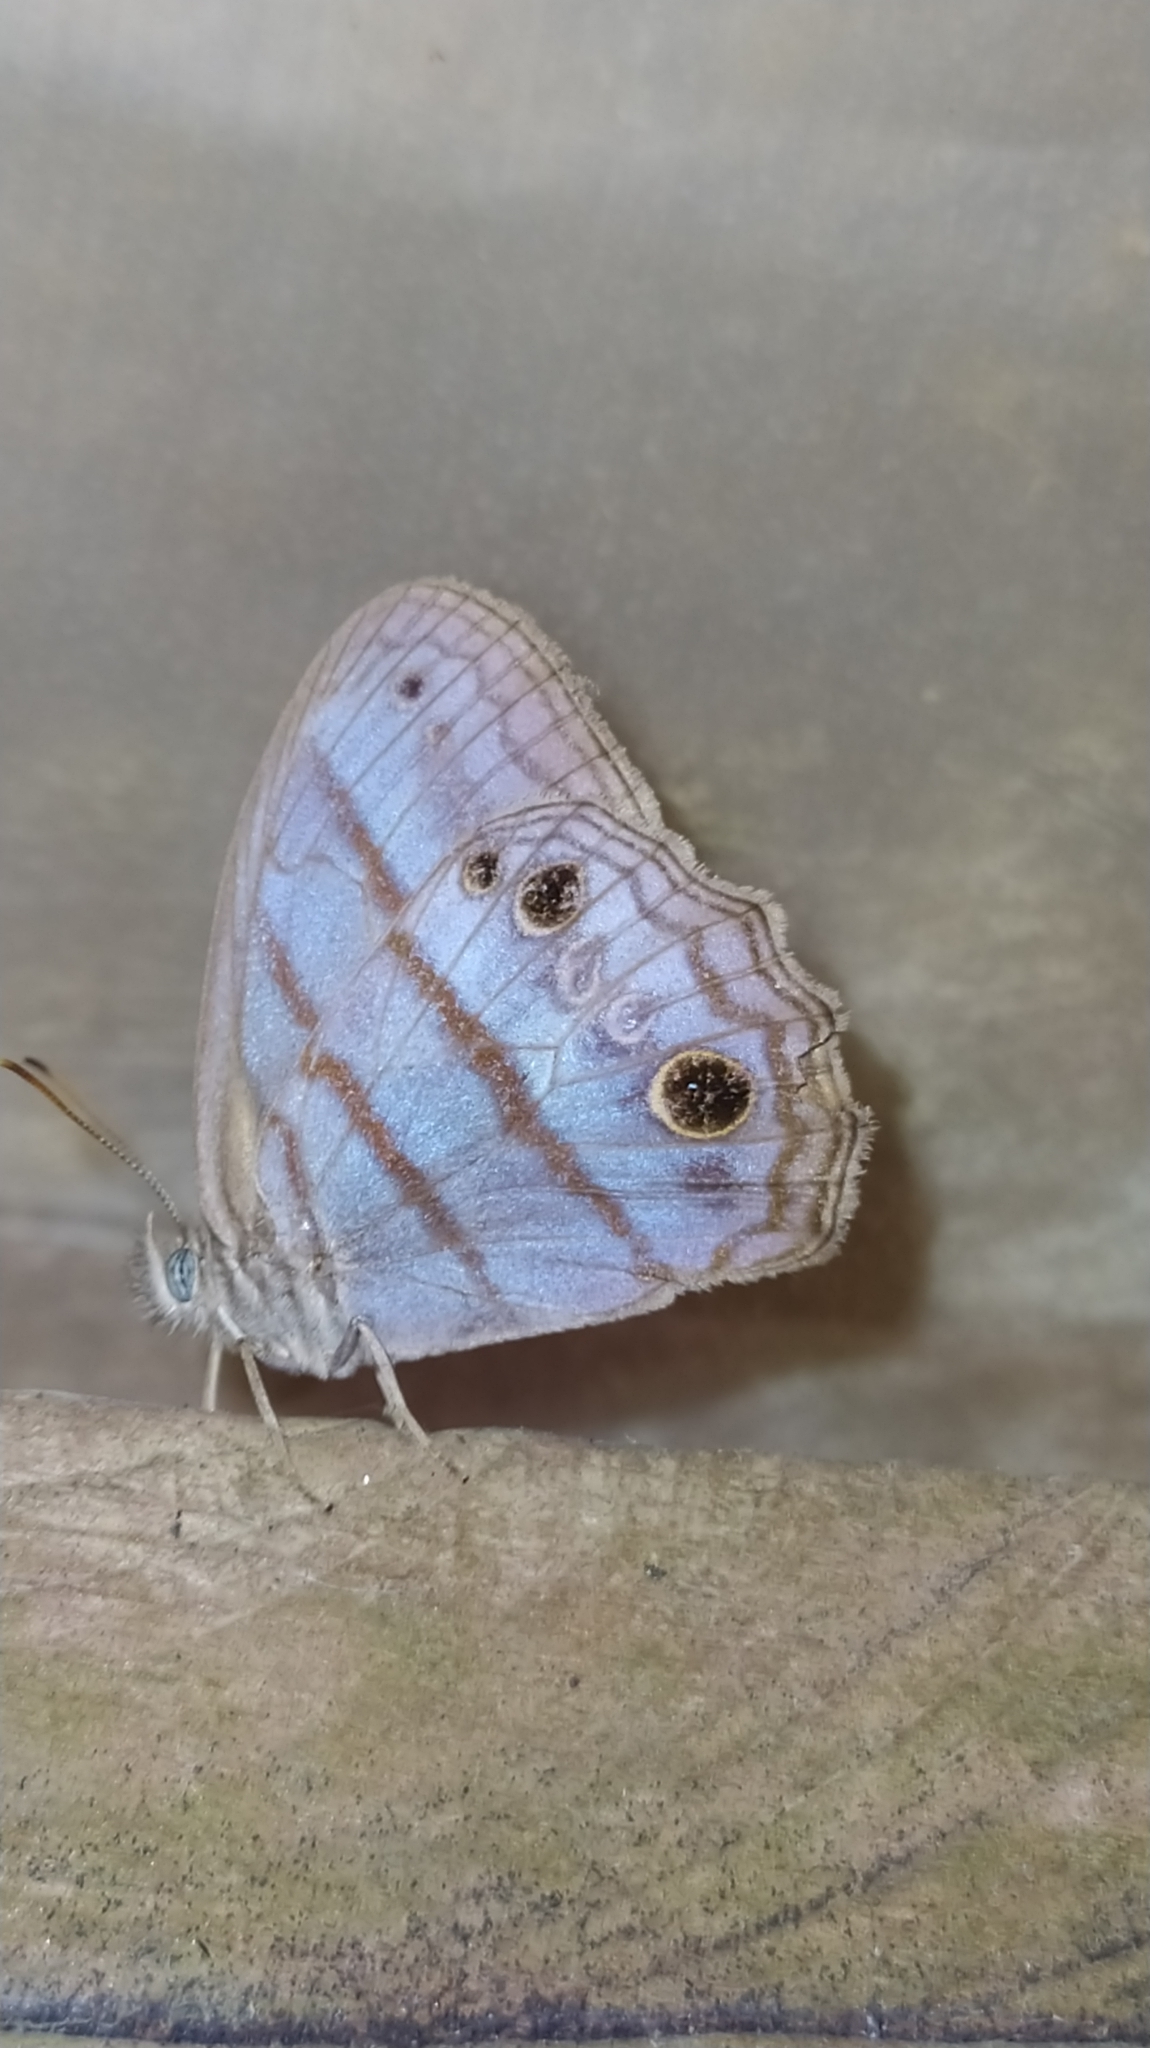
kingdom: Animalia
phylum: Arthropoda
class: Insecta
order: Lepidoptera
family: Nymphalidae
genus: Magneuptychia
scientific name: Magneuptychia
